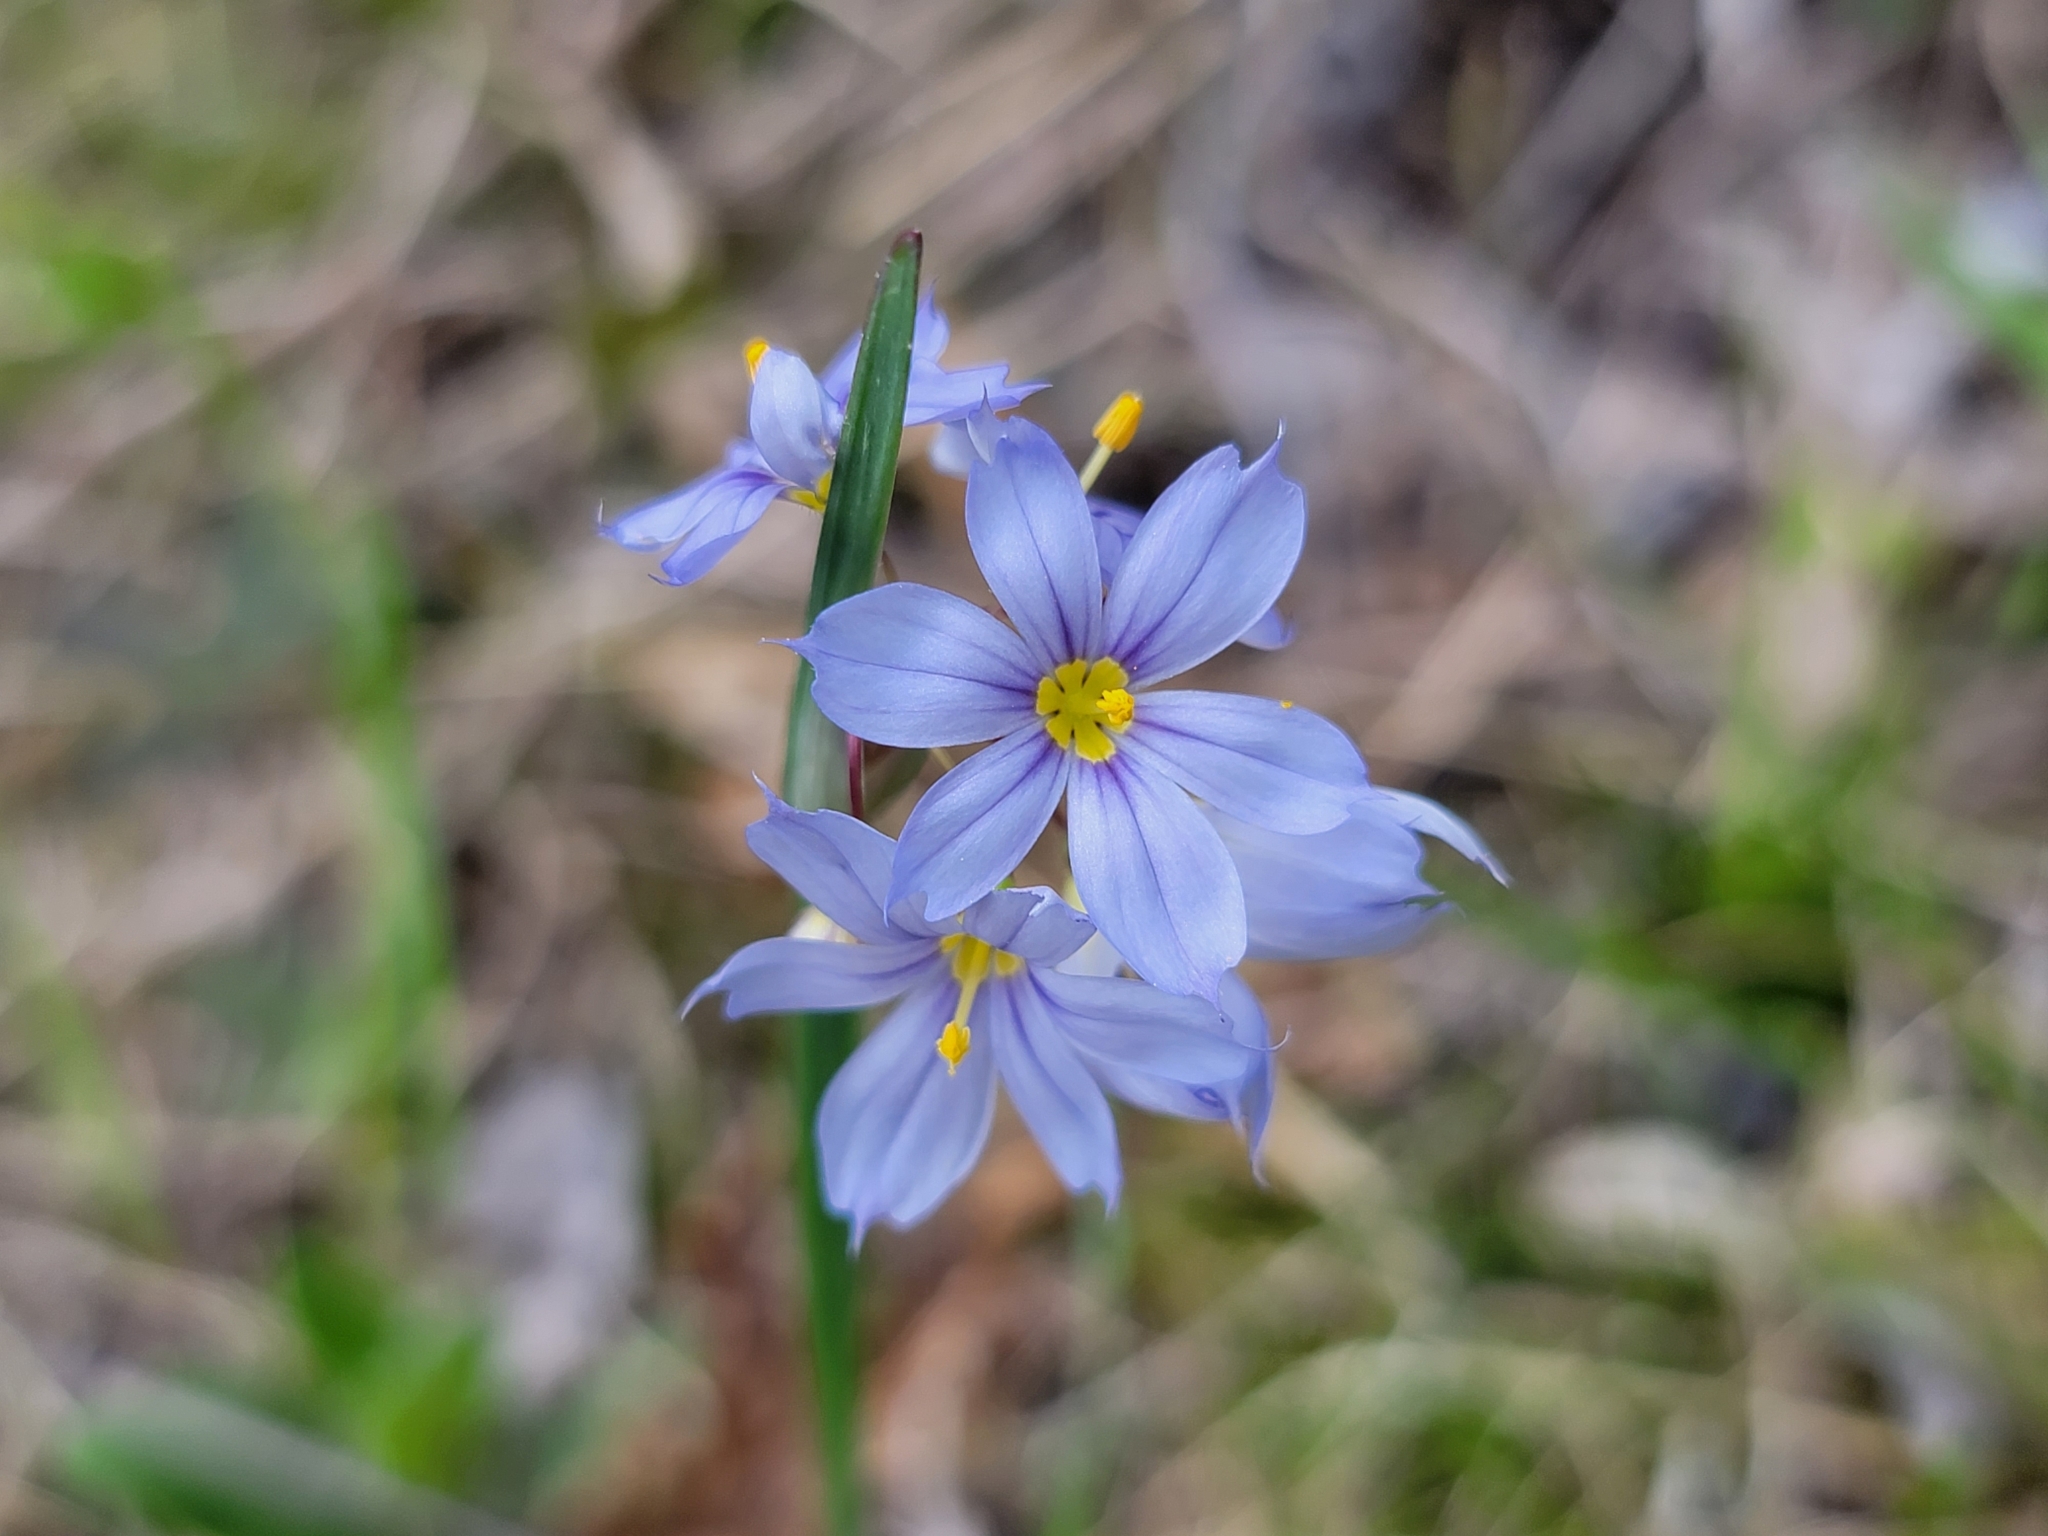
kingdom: Plantae
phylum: Tracheophyta
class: Liliopsida
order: Asparagales
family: Iridaceae
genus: Sisyrinchium
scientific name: Sisyrinchium albidum
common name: Pale blue-eyed-grass
